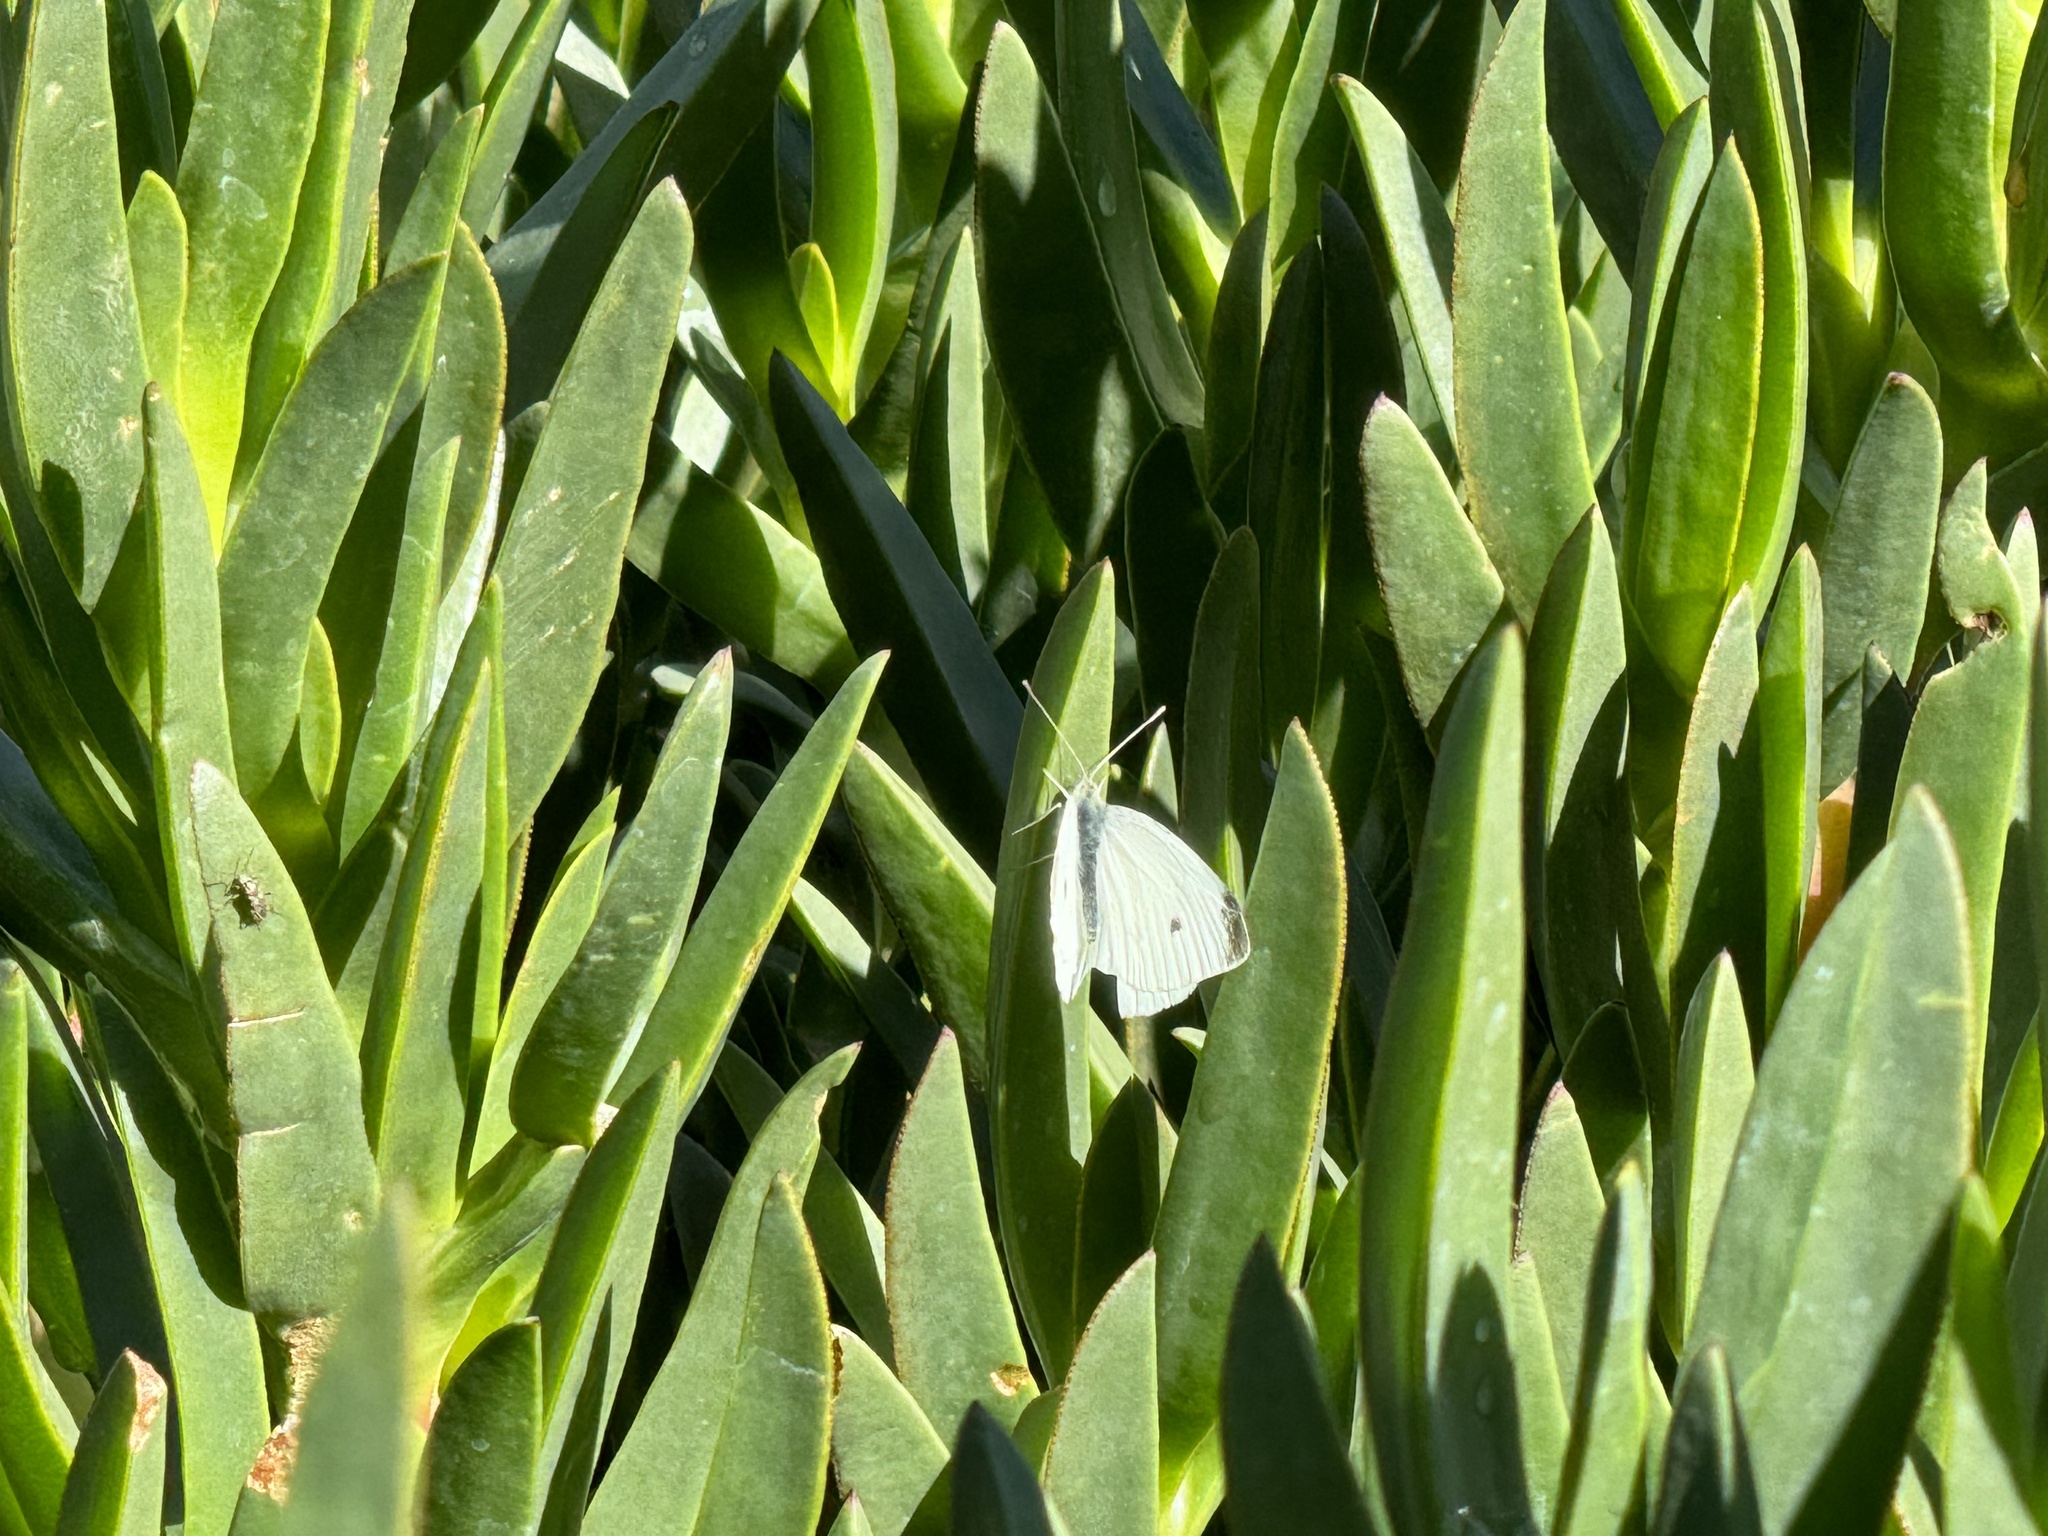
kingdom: Animalia
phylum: Arthropoda
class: Insecta
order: Lepidoptera
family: Pieridae
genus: Pieris
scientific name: Pieris rapae
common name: Small white
